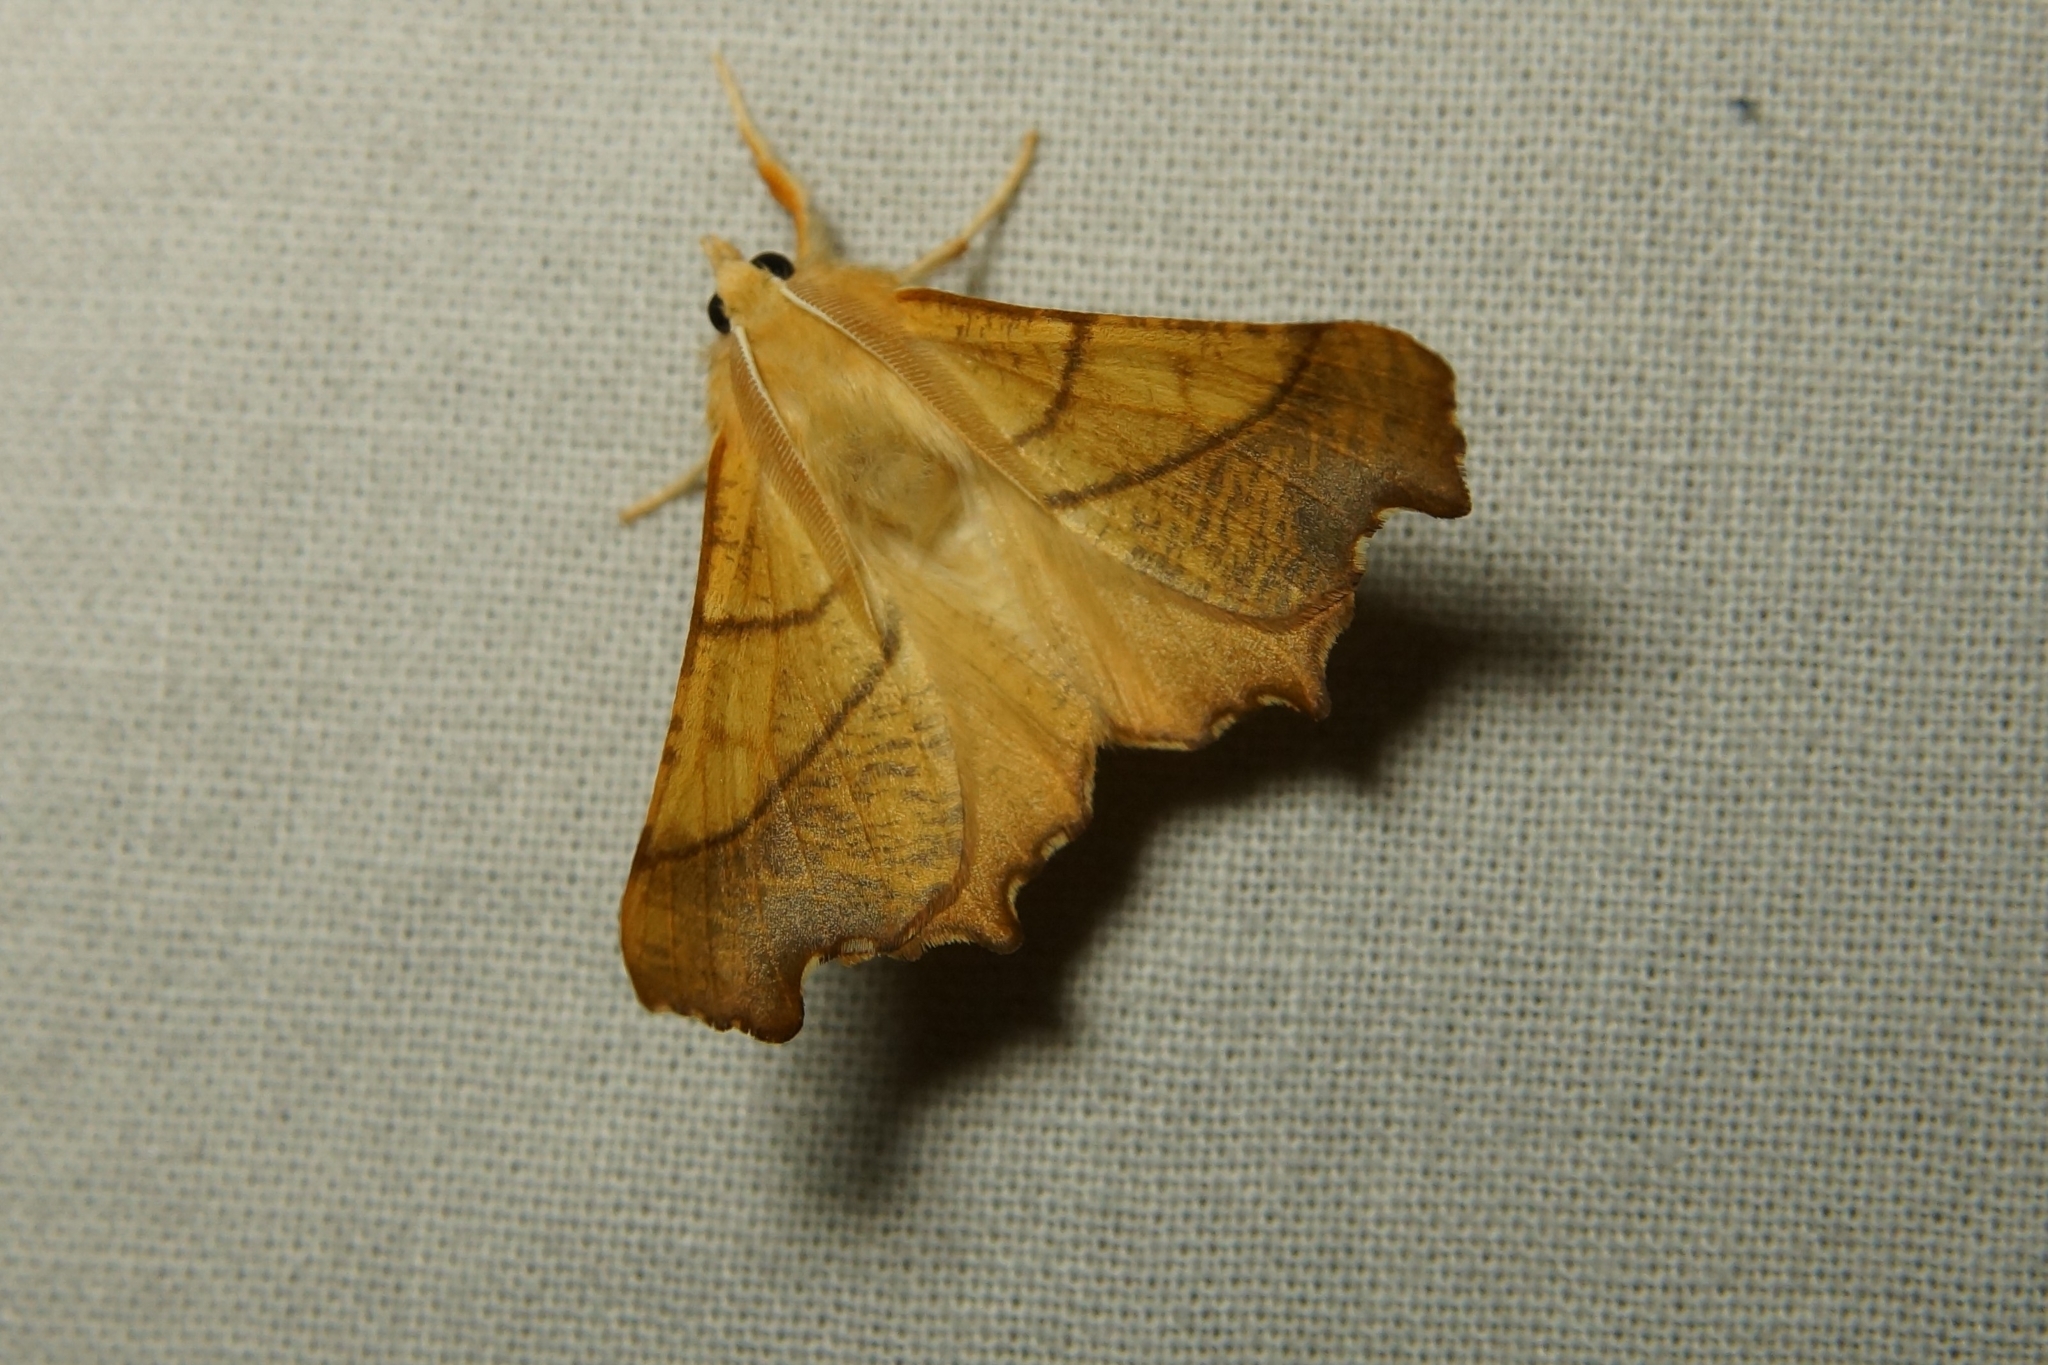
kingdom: Animalia
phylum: Arthropoda
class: Insecta
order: Lepidoptera
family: Geometridae
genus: Ennomos
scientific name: Ennomos fuscantaria
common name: Dusky thorn
